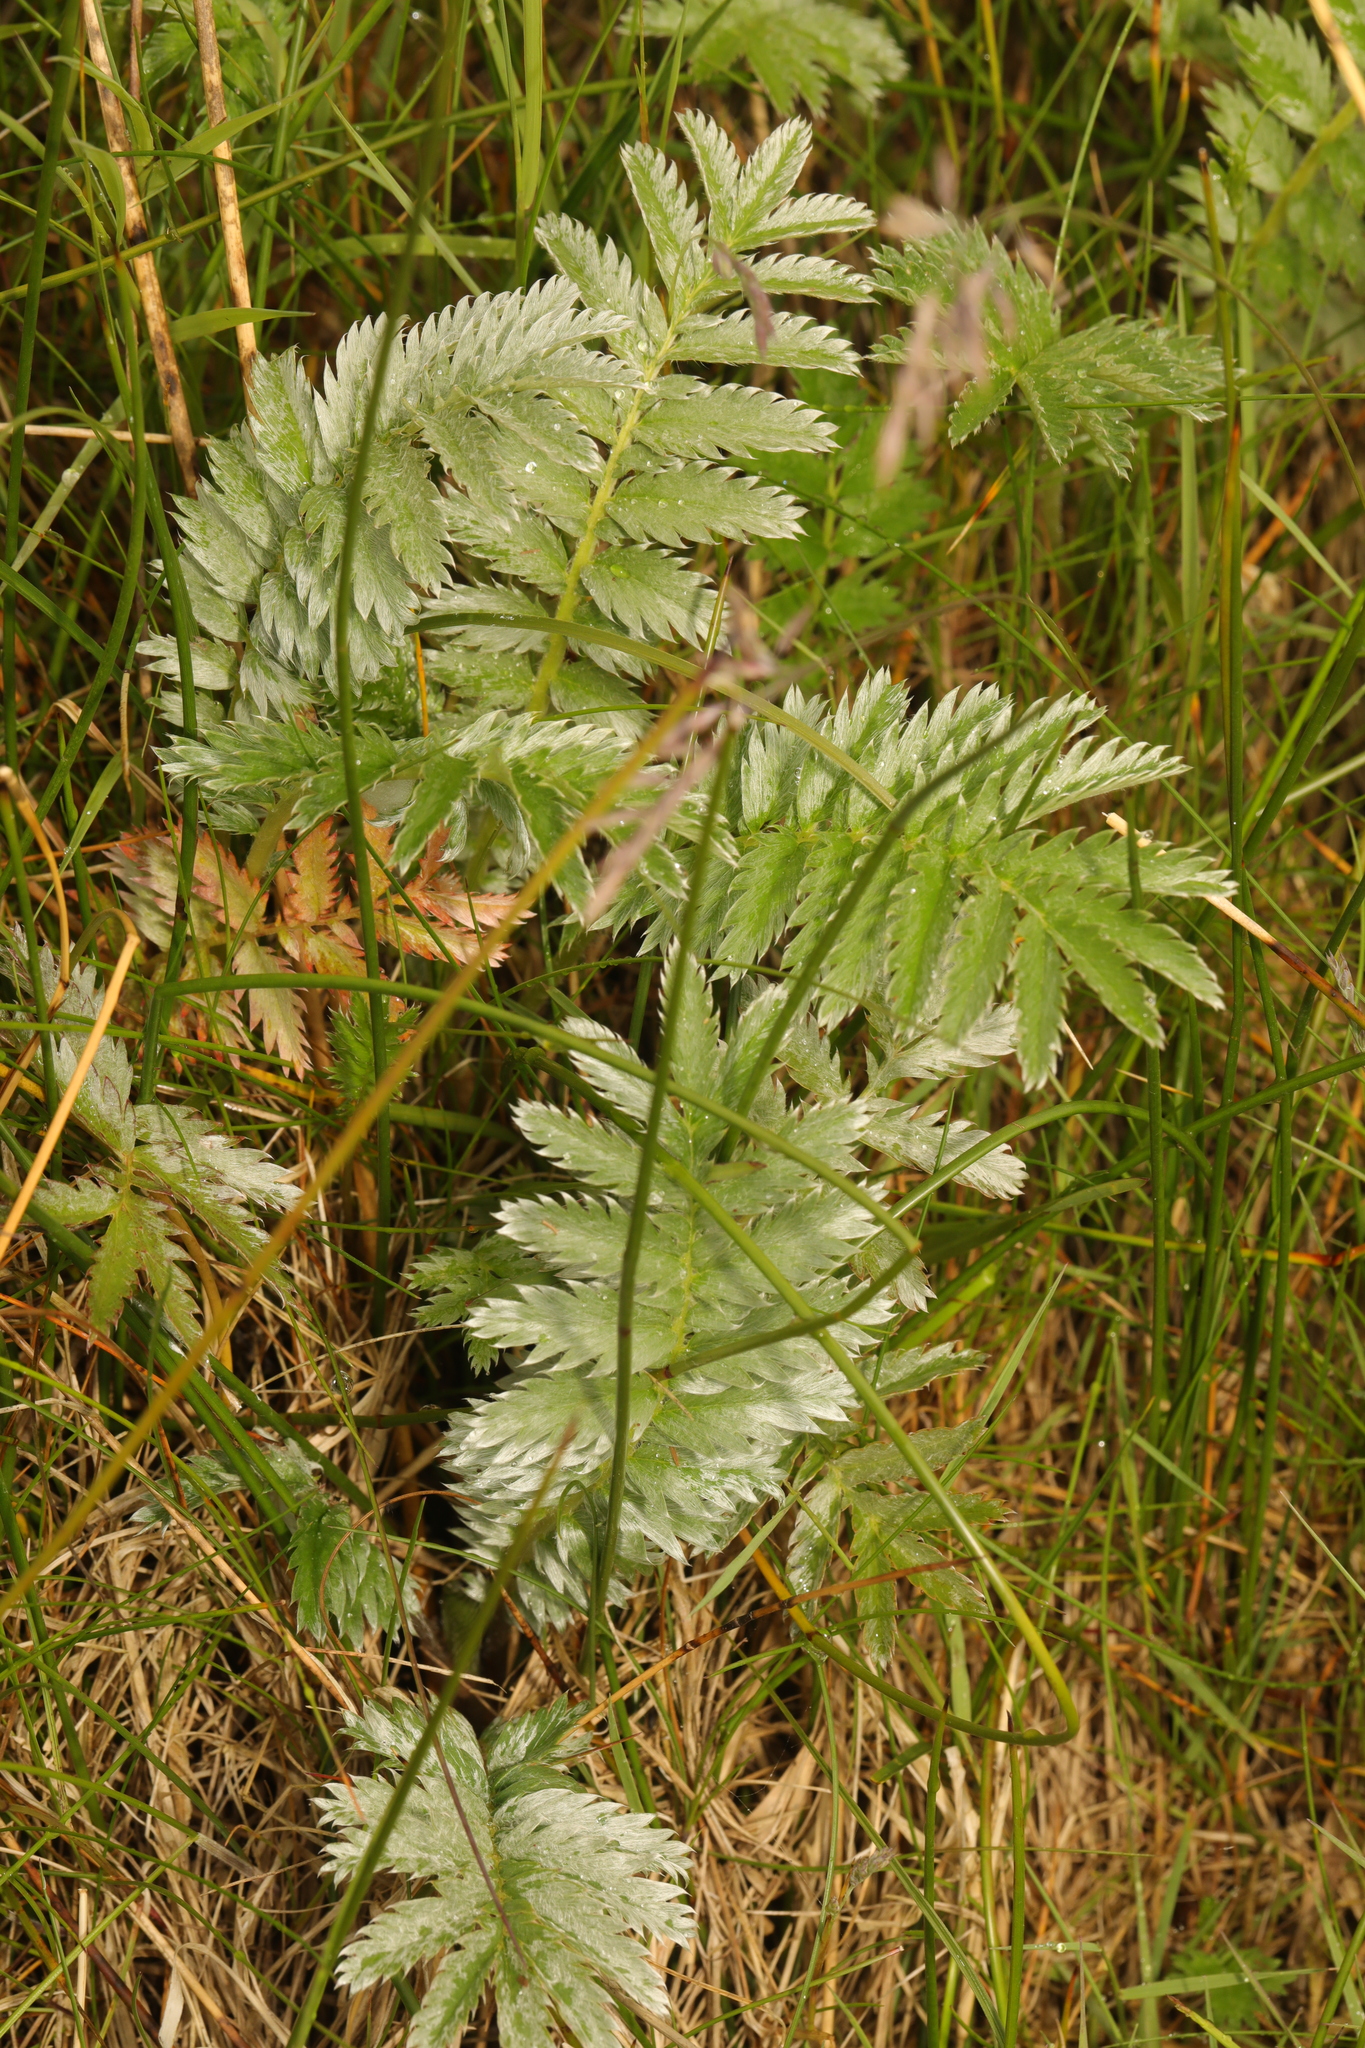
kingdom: Plantae
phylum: Tracheophyta
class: Magnoliopsida
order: Rosales
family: Rosaceae
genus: Argentina
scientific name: Argentina anserina
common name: Common silverweed
